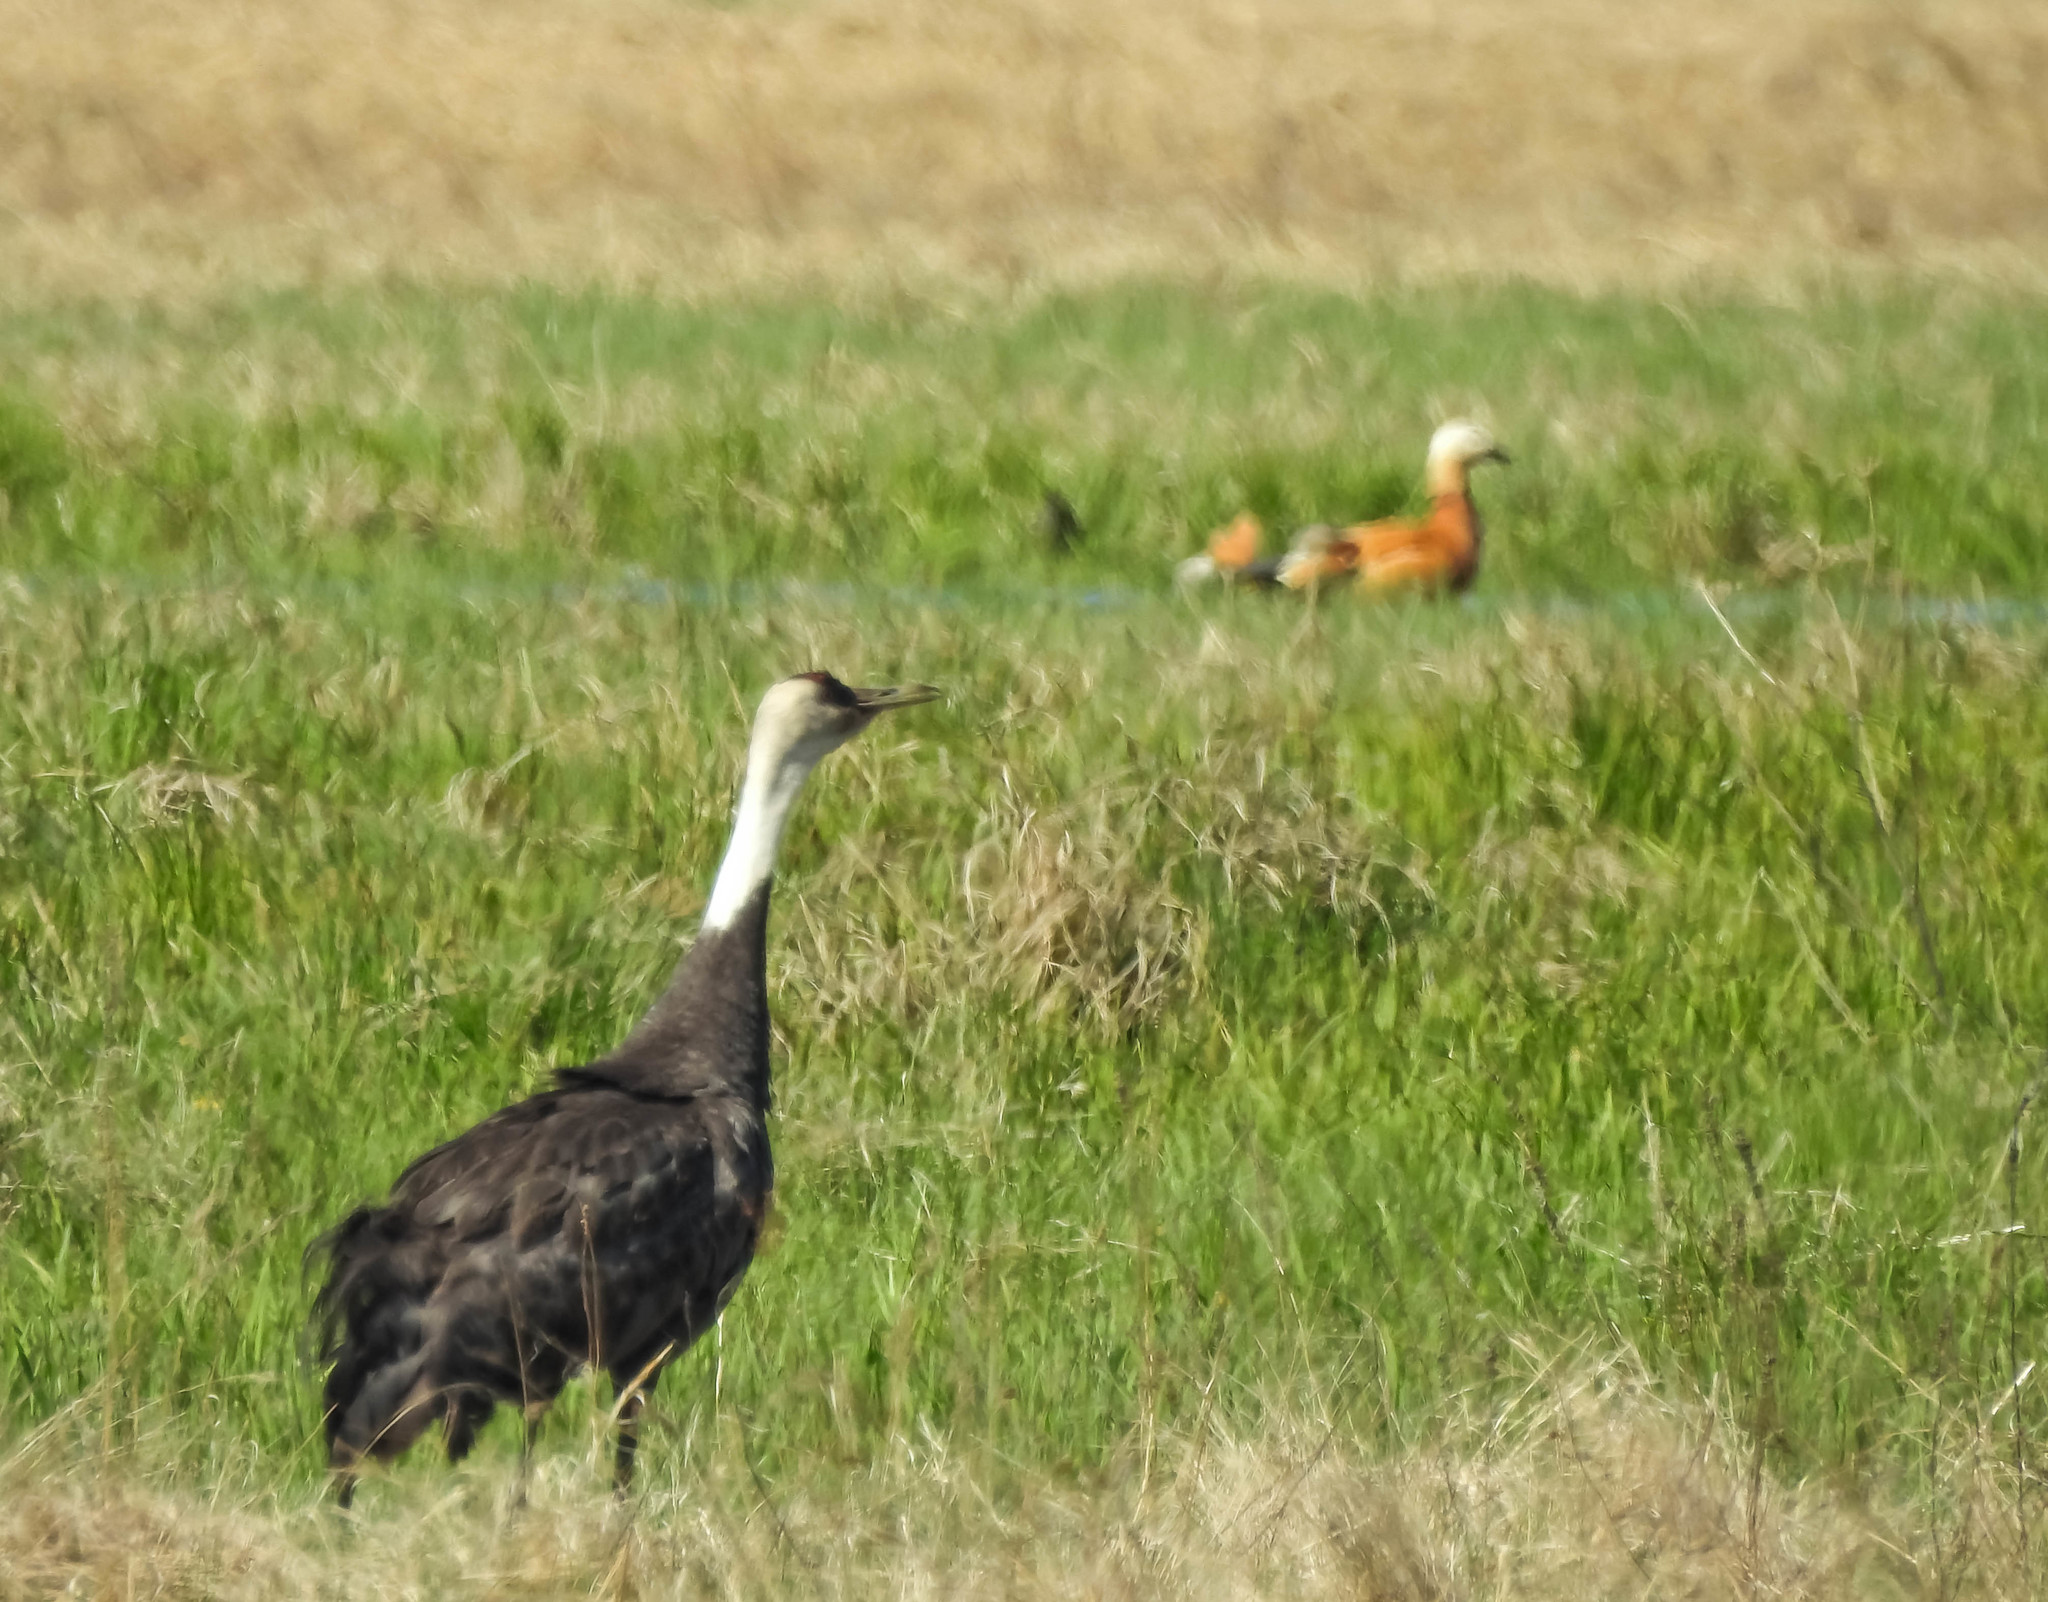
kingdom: Animalia
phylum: Chordata
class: Aves
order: Gruiformes
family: Gruidae
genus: Grus
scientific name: Grus monacha
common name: Hooded crane
